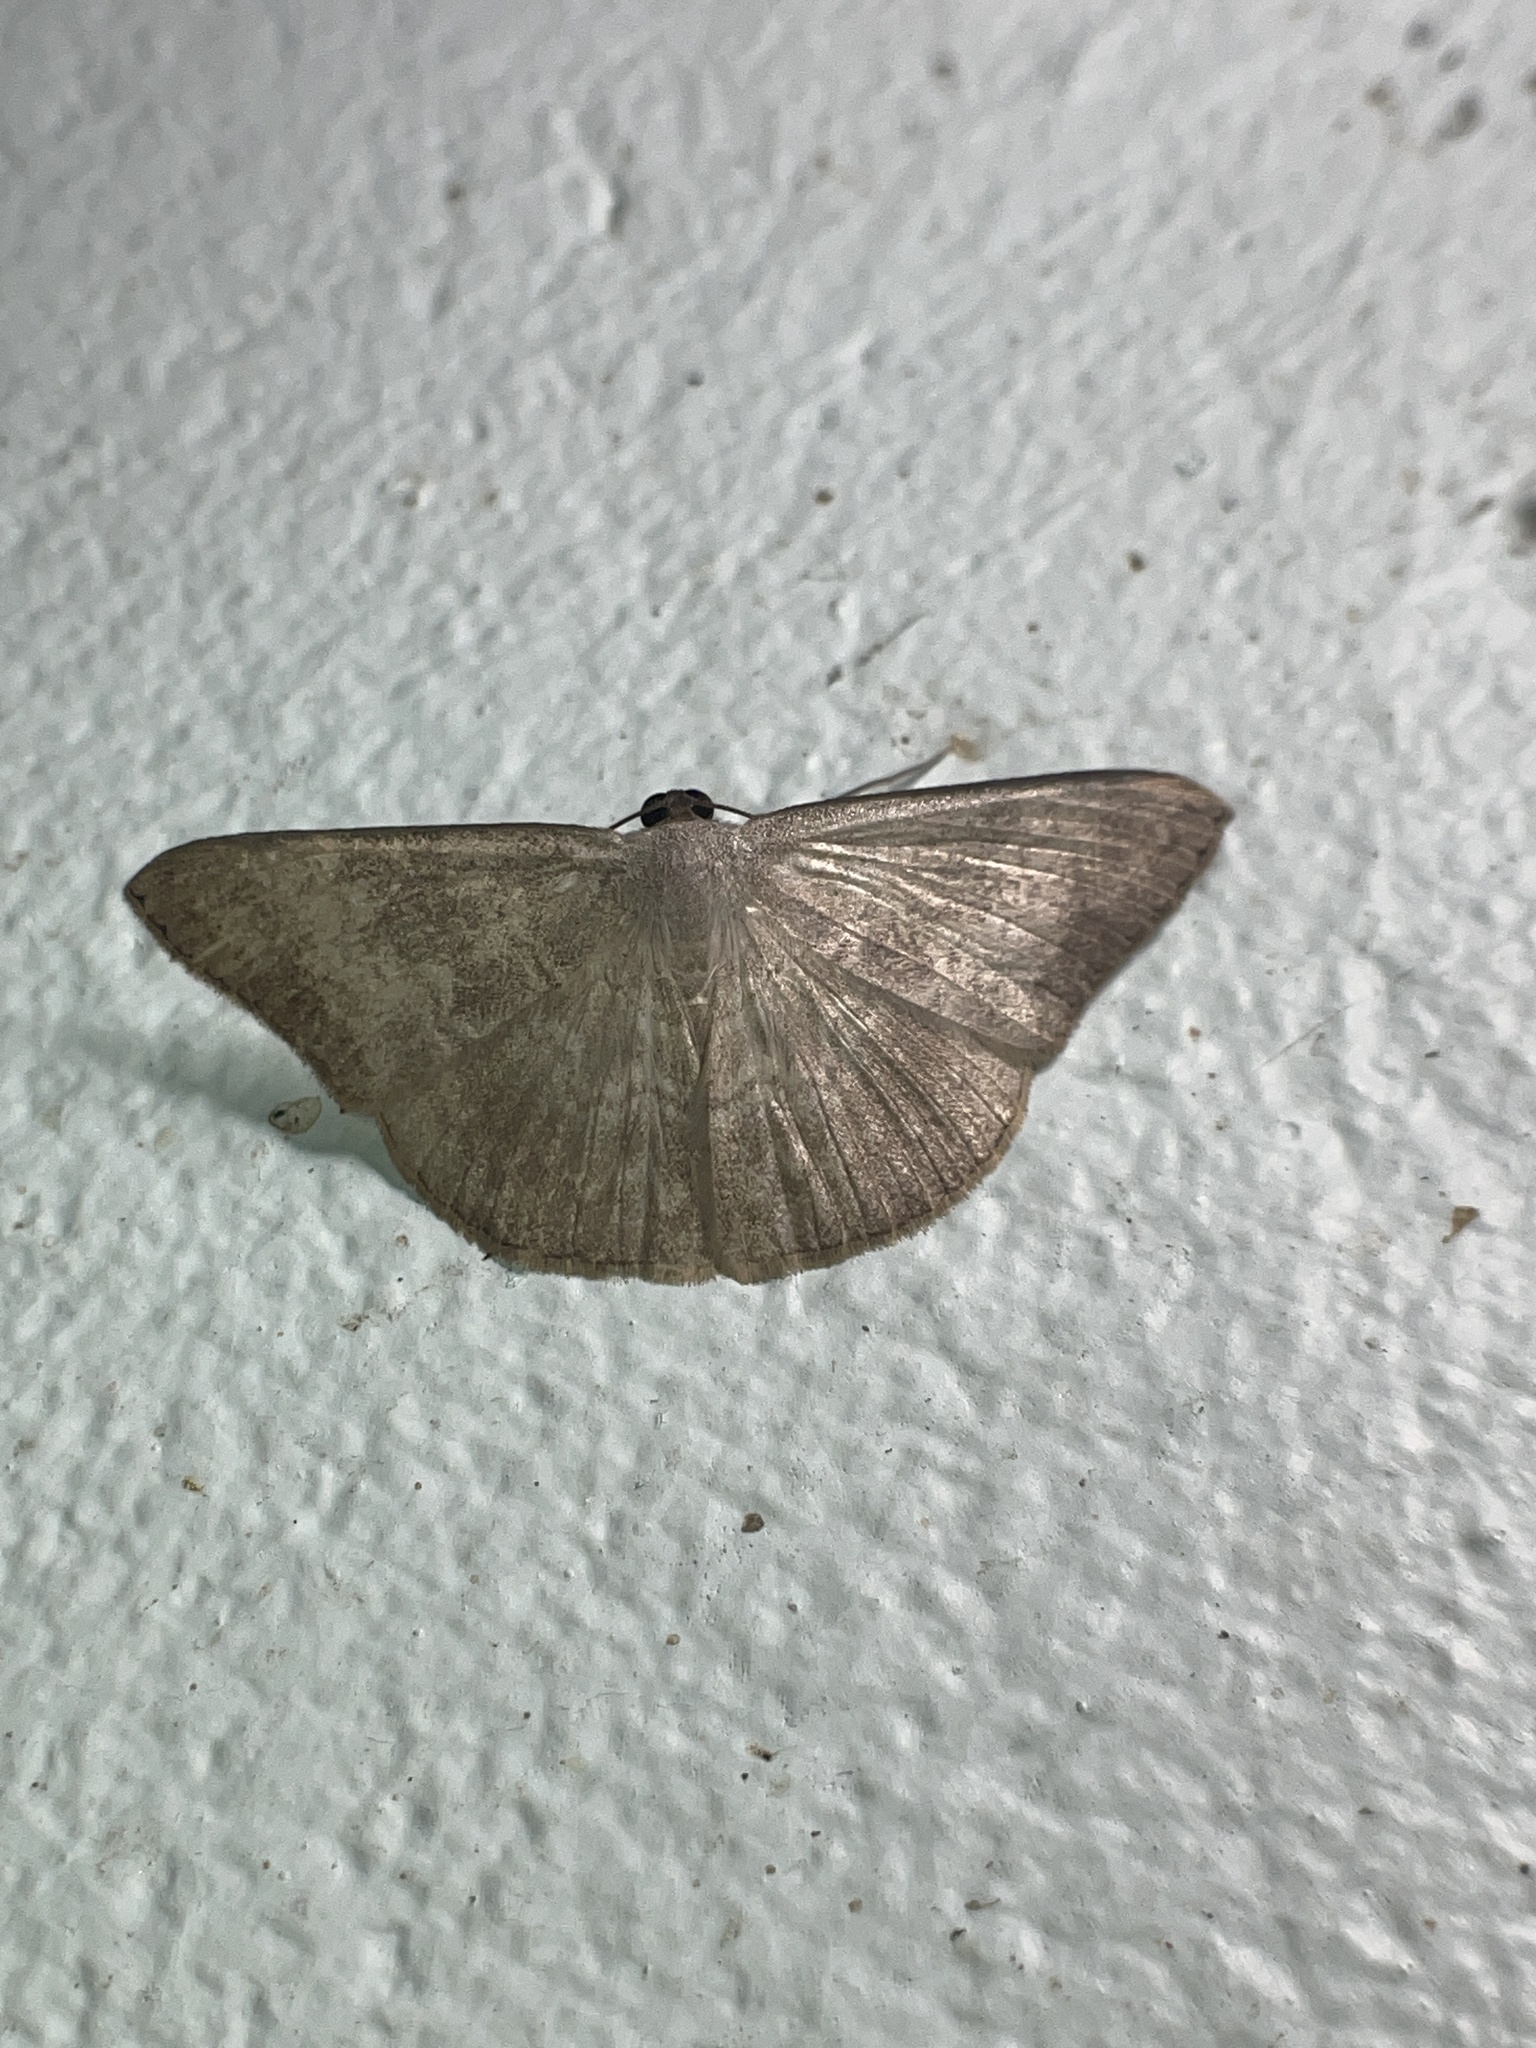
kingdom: Animalia
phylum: Arthropoda
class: Insecta
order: Lepidoptera
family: Geometridae
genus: Pycnoneura
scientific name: Pycnoneura protrusilinea
